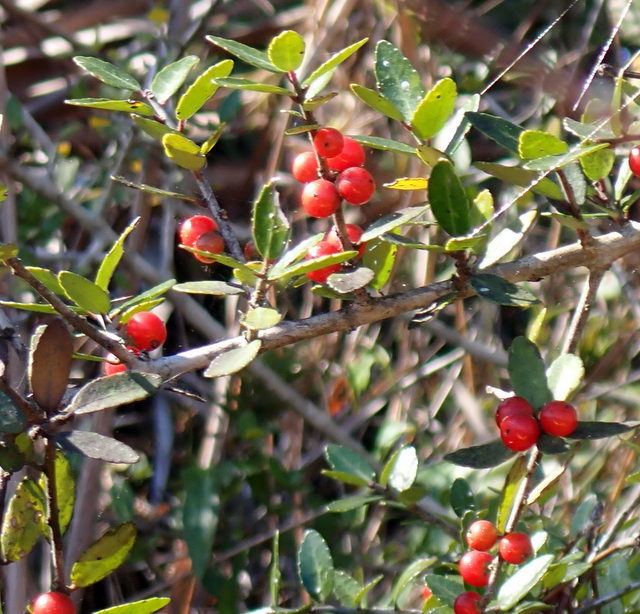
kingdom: Plantae
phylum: Tracheophyta
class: Magnoliopsida
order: Aquifoliales
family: Aquifoliaceae
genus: Ilex
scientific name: Ilex vomitoria
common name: Yaupon holly
